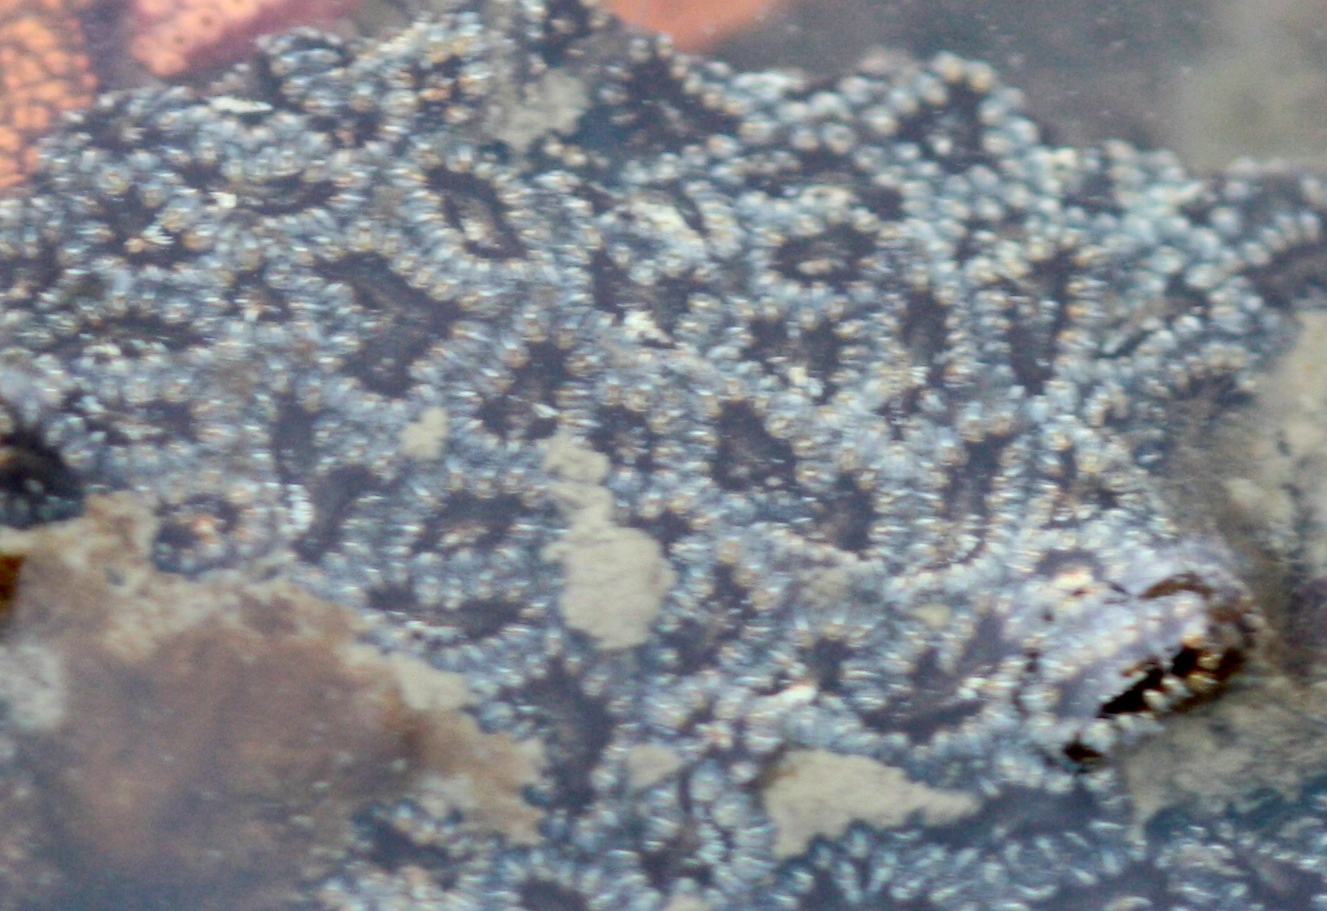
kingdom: Animalia
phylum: Chordata
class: Ascidiacea
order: Stolidobranchia
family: Styelidae
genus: Botryllus
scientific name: Botryllus schlosseri
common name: Golden star tunicate
